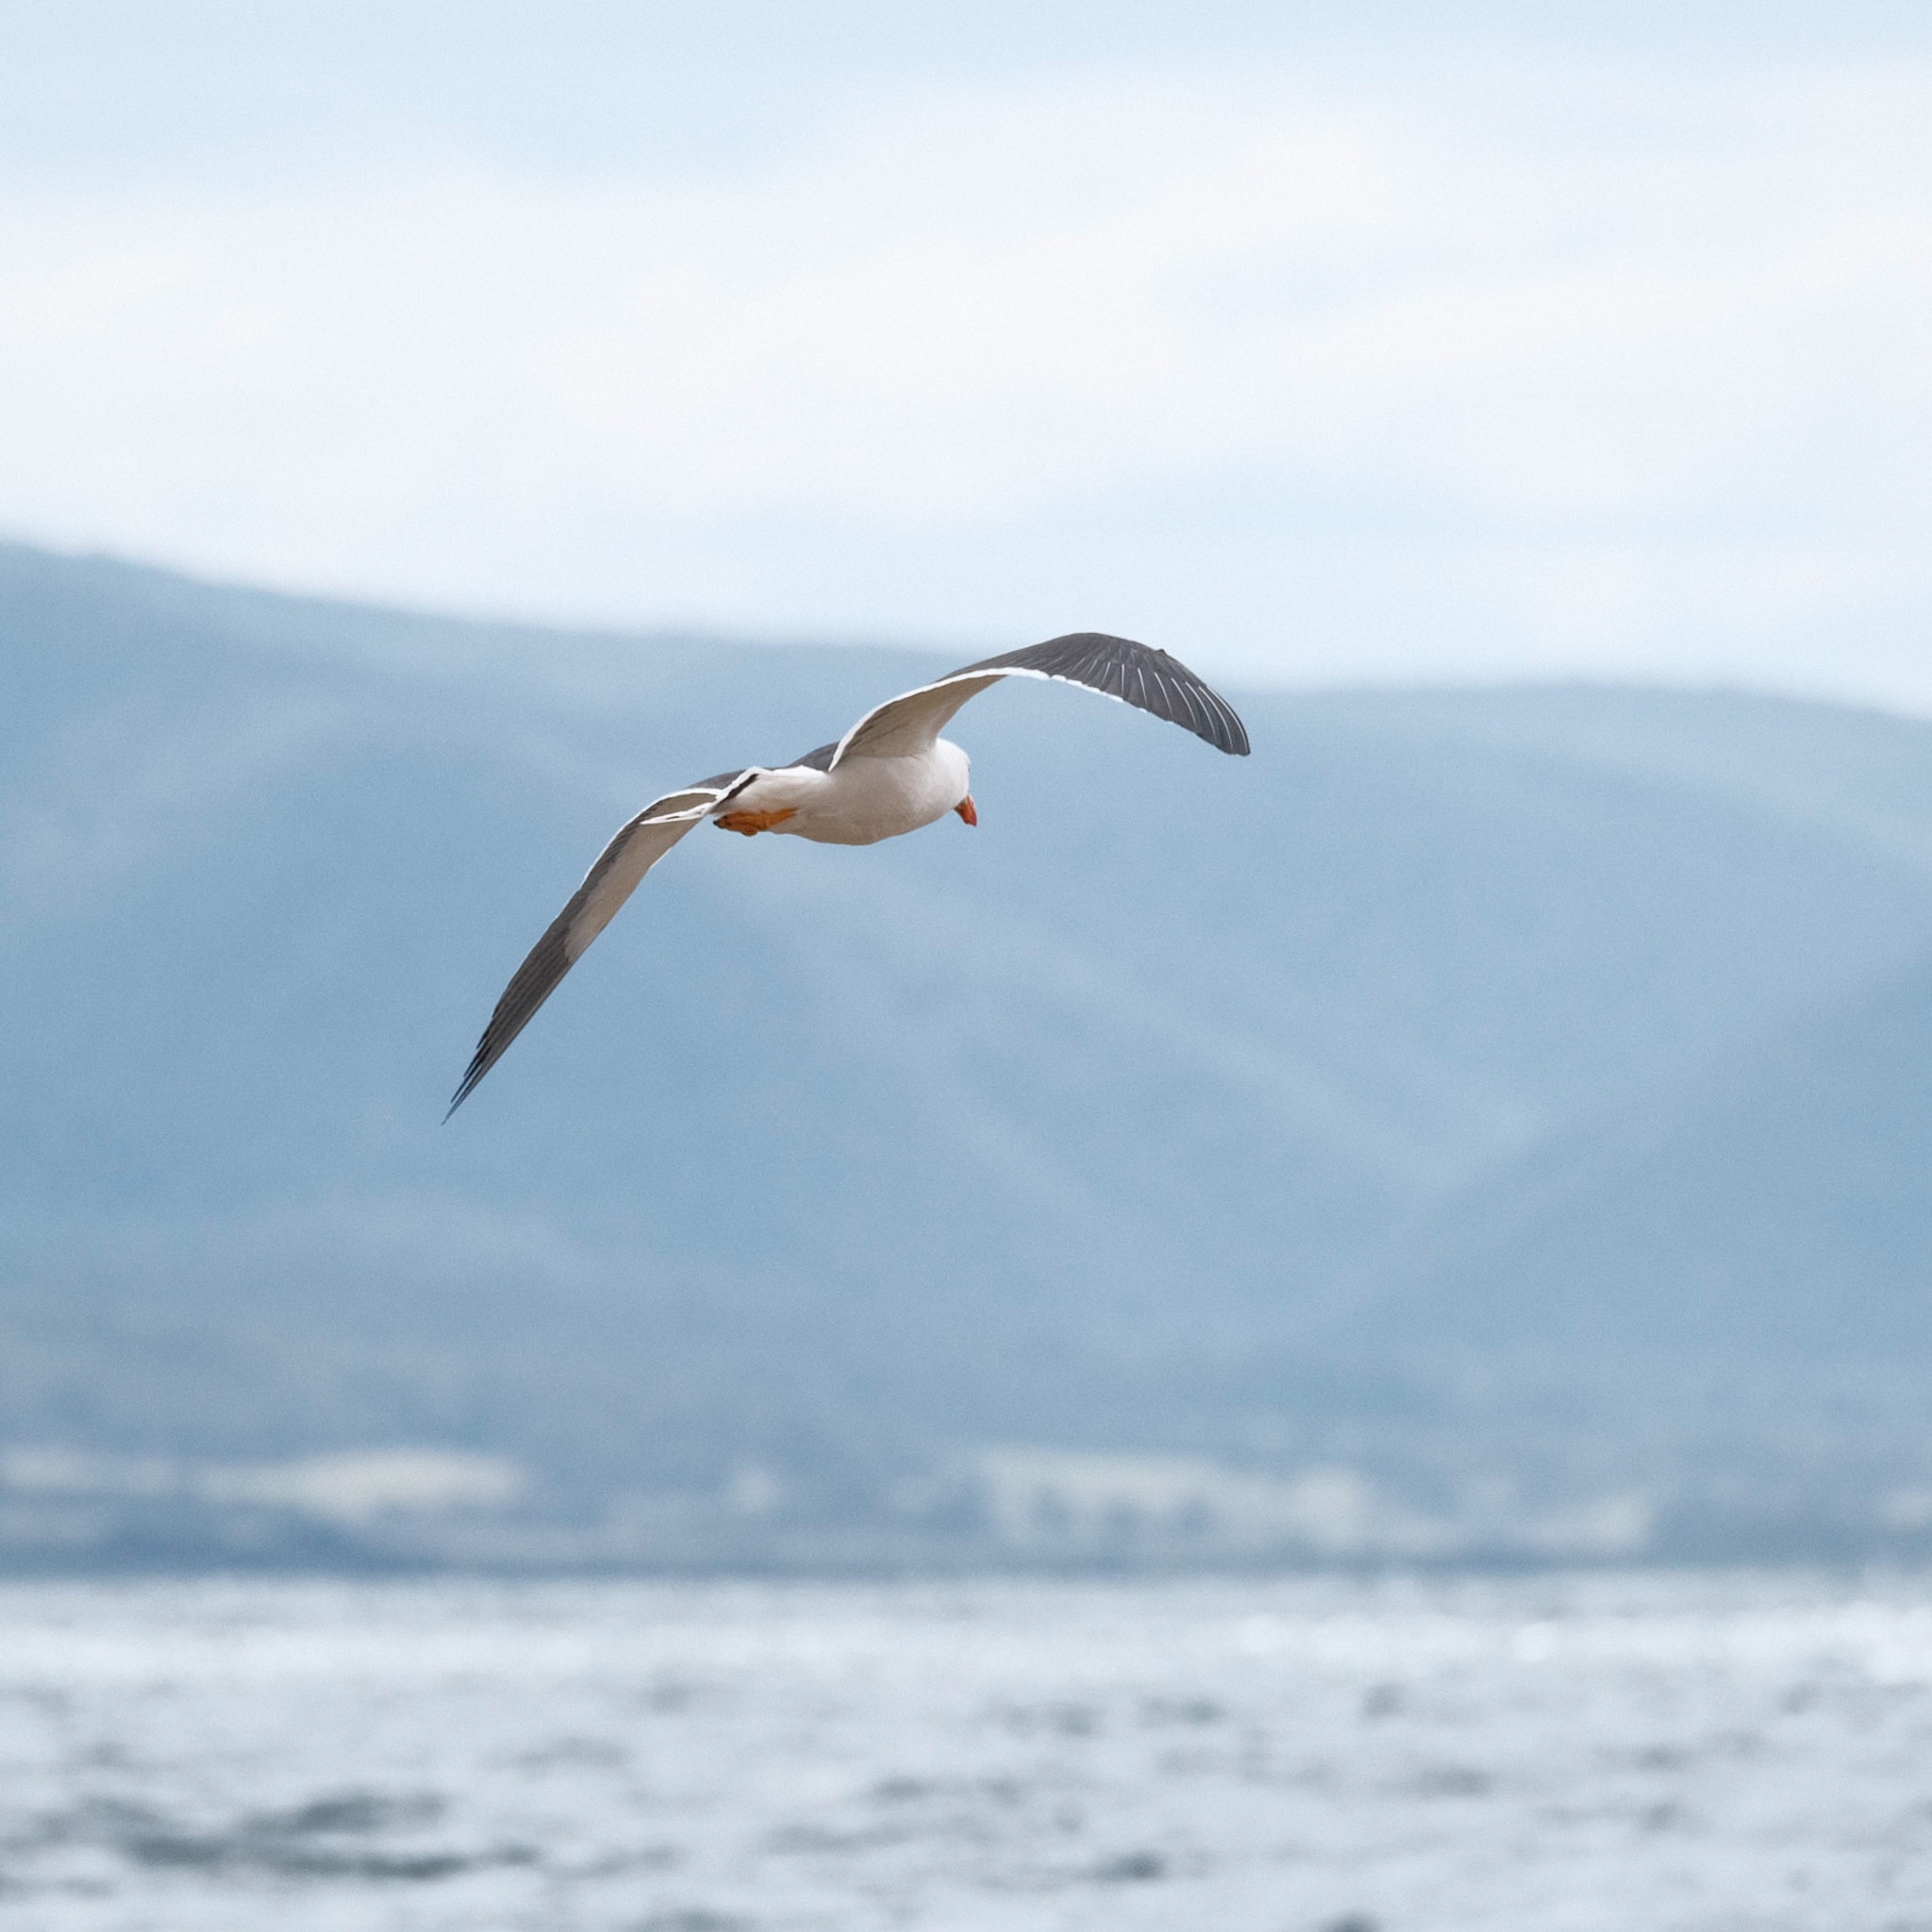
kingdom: Animalia
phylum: Chordata
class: Aves
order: Charadriiformes
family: Laridae
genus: Larus
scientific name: Larus pacificus
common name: Pacific gull
